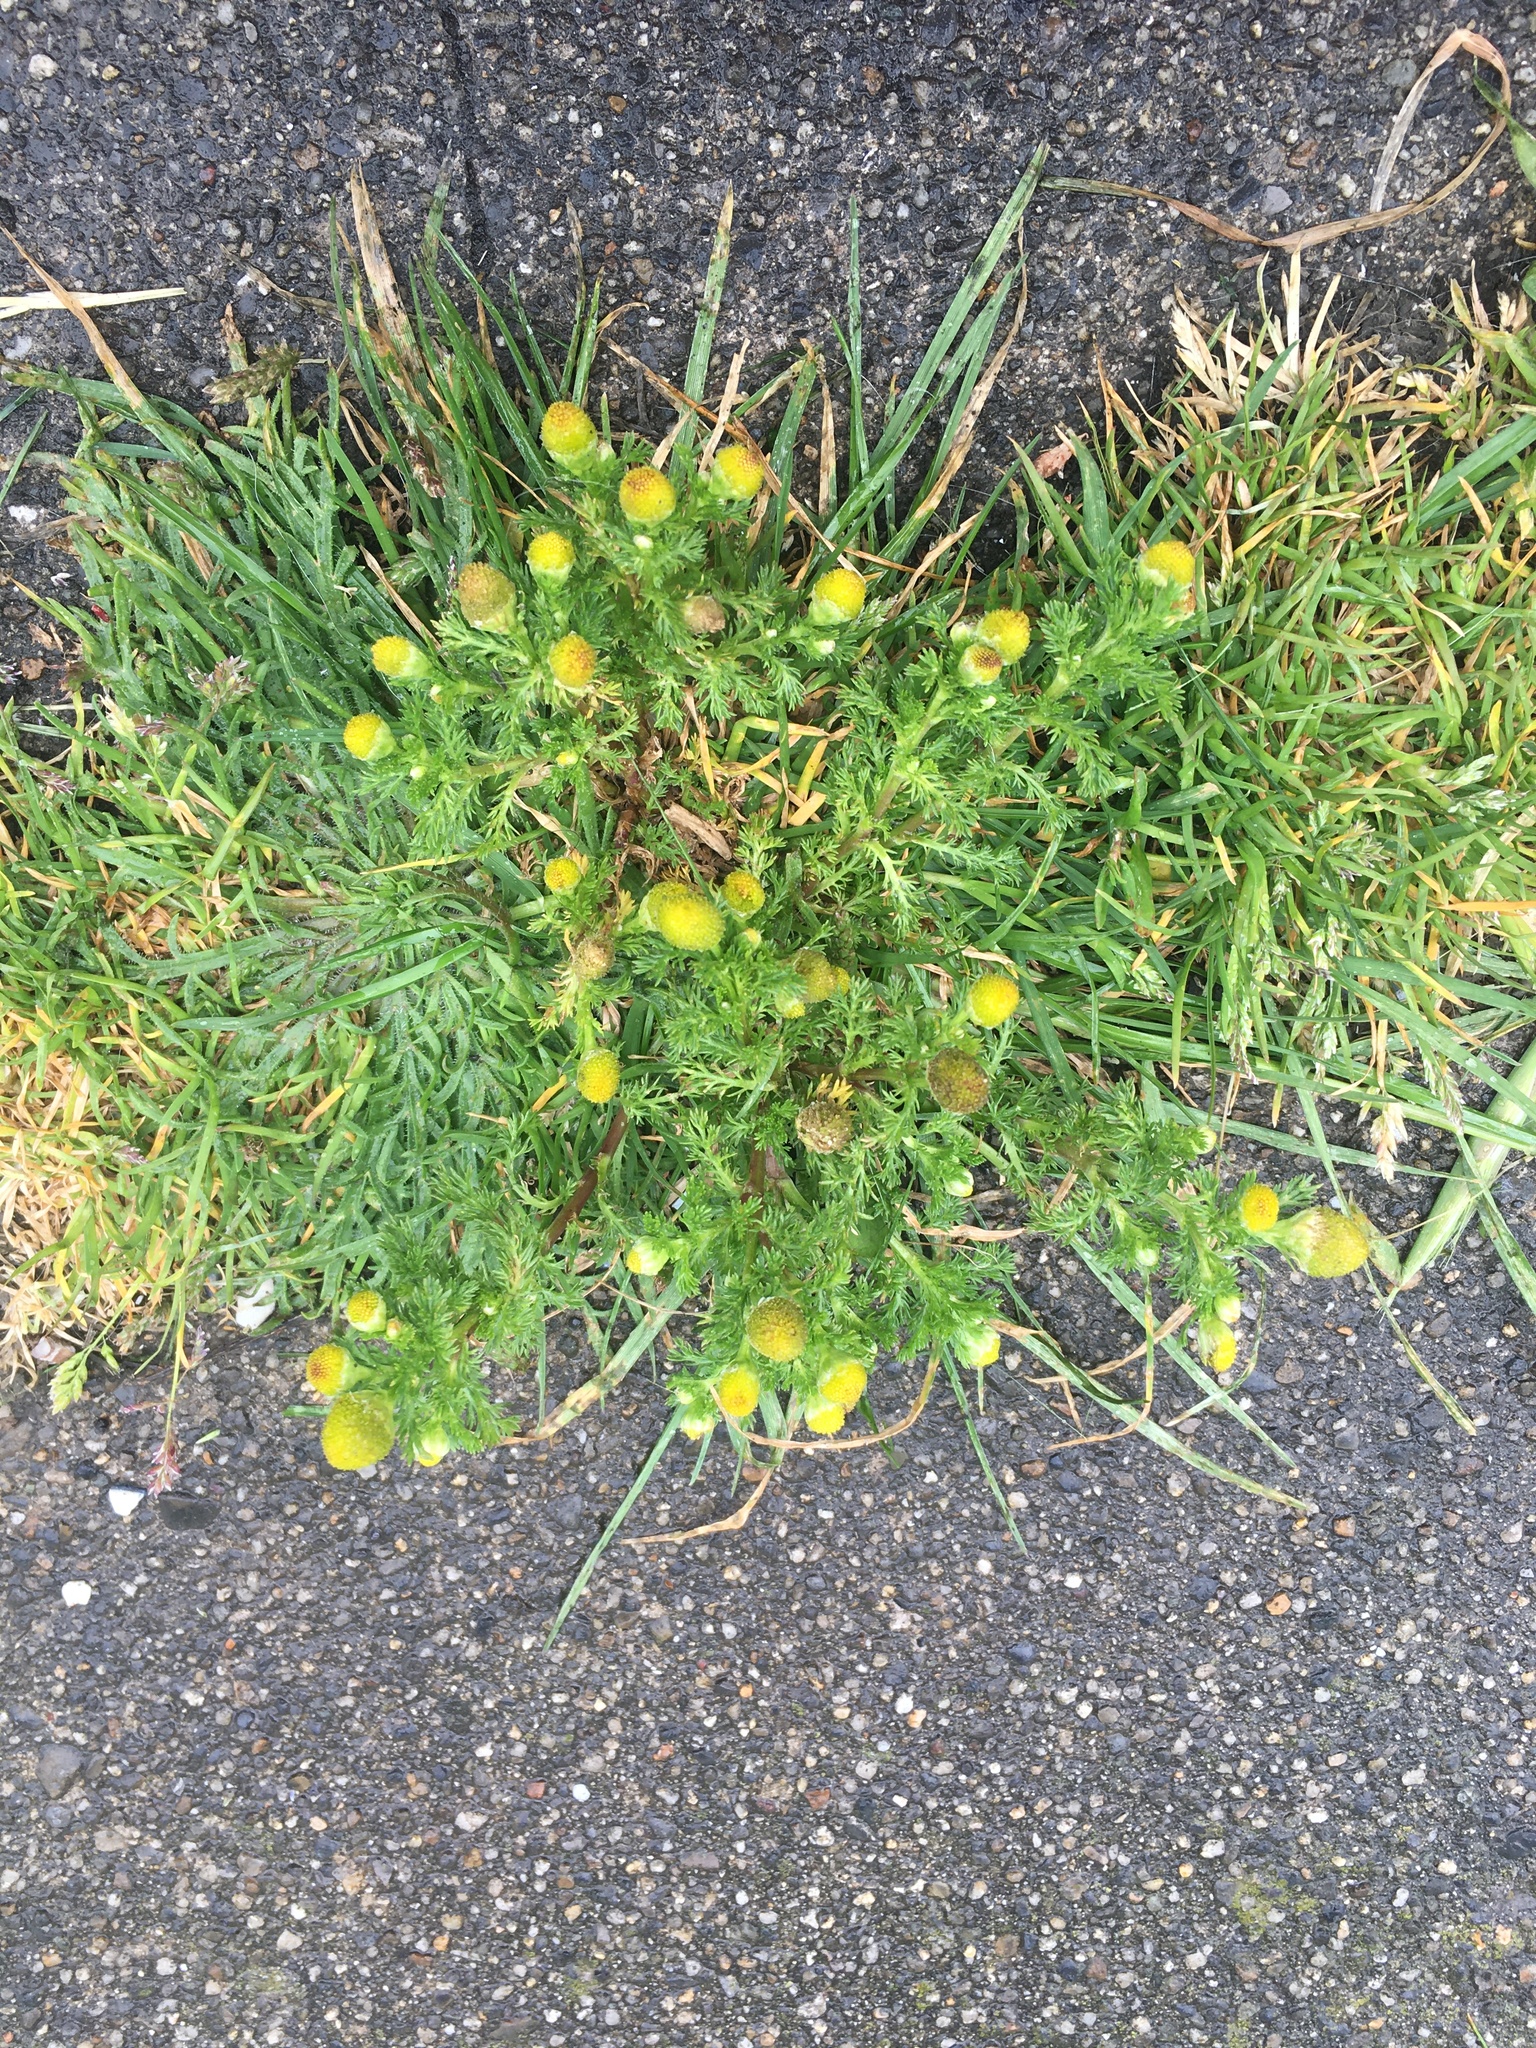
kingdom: Plantae
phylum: Tracheophyta
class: Magnoliopsida
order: Asterales
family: Asteraceae
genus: Matricaria
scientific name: Matricaria discoidea
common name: Disc mayweed
